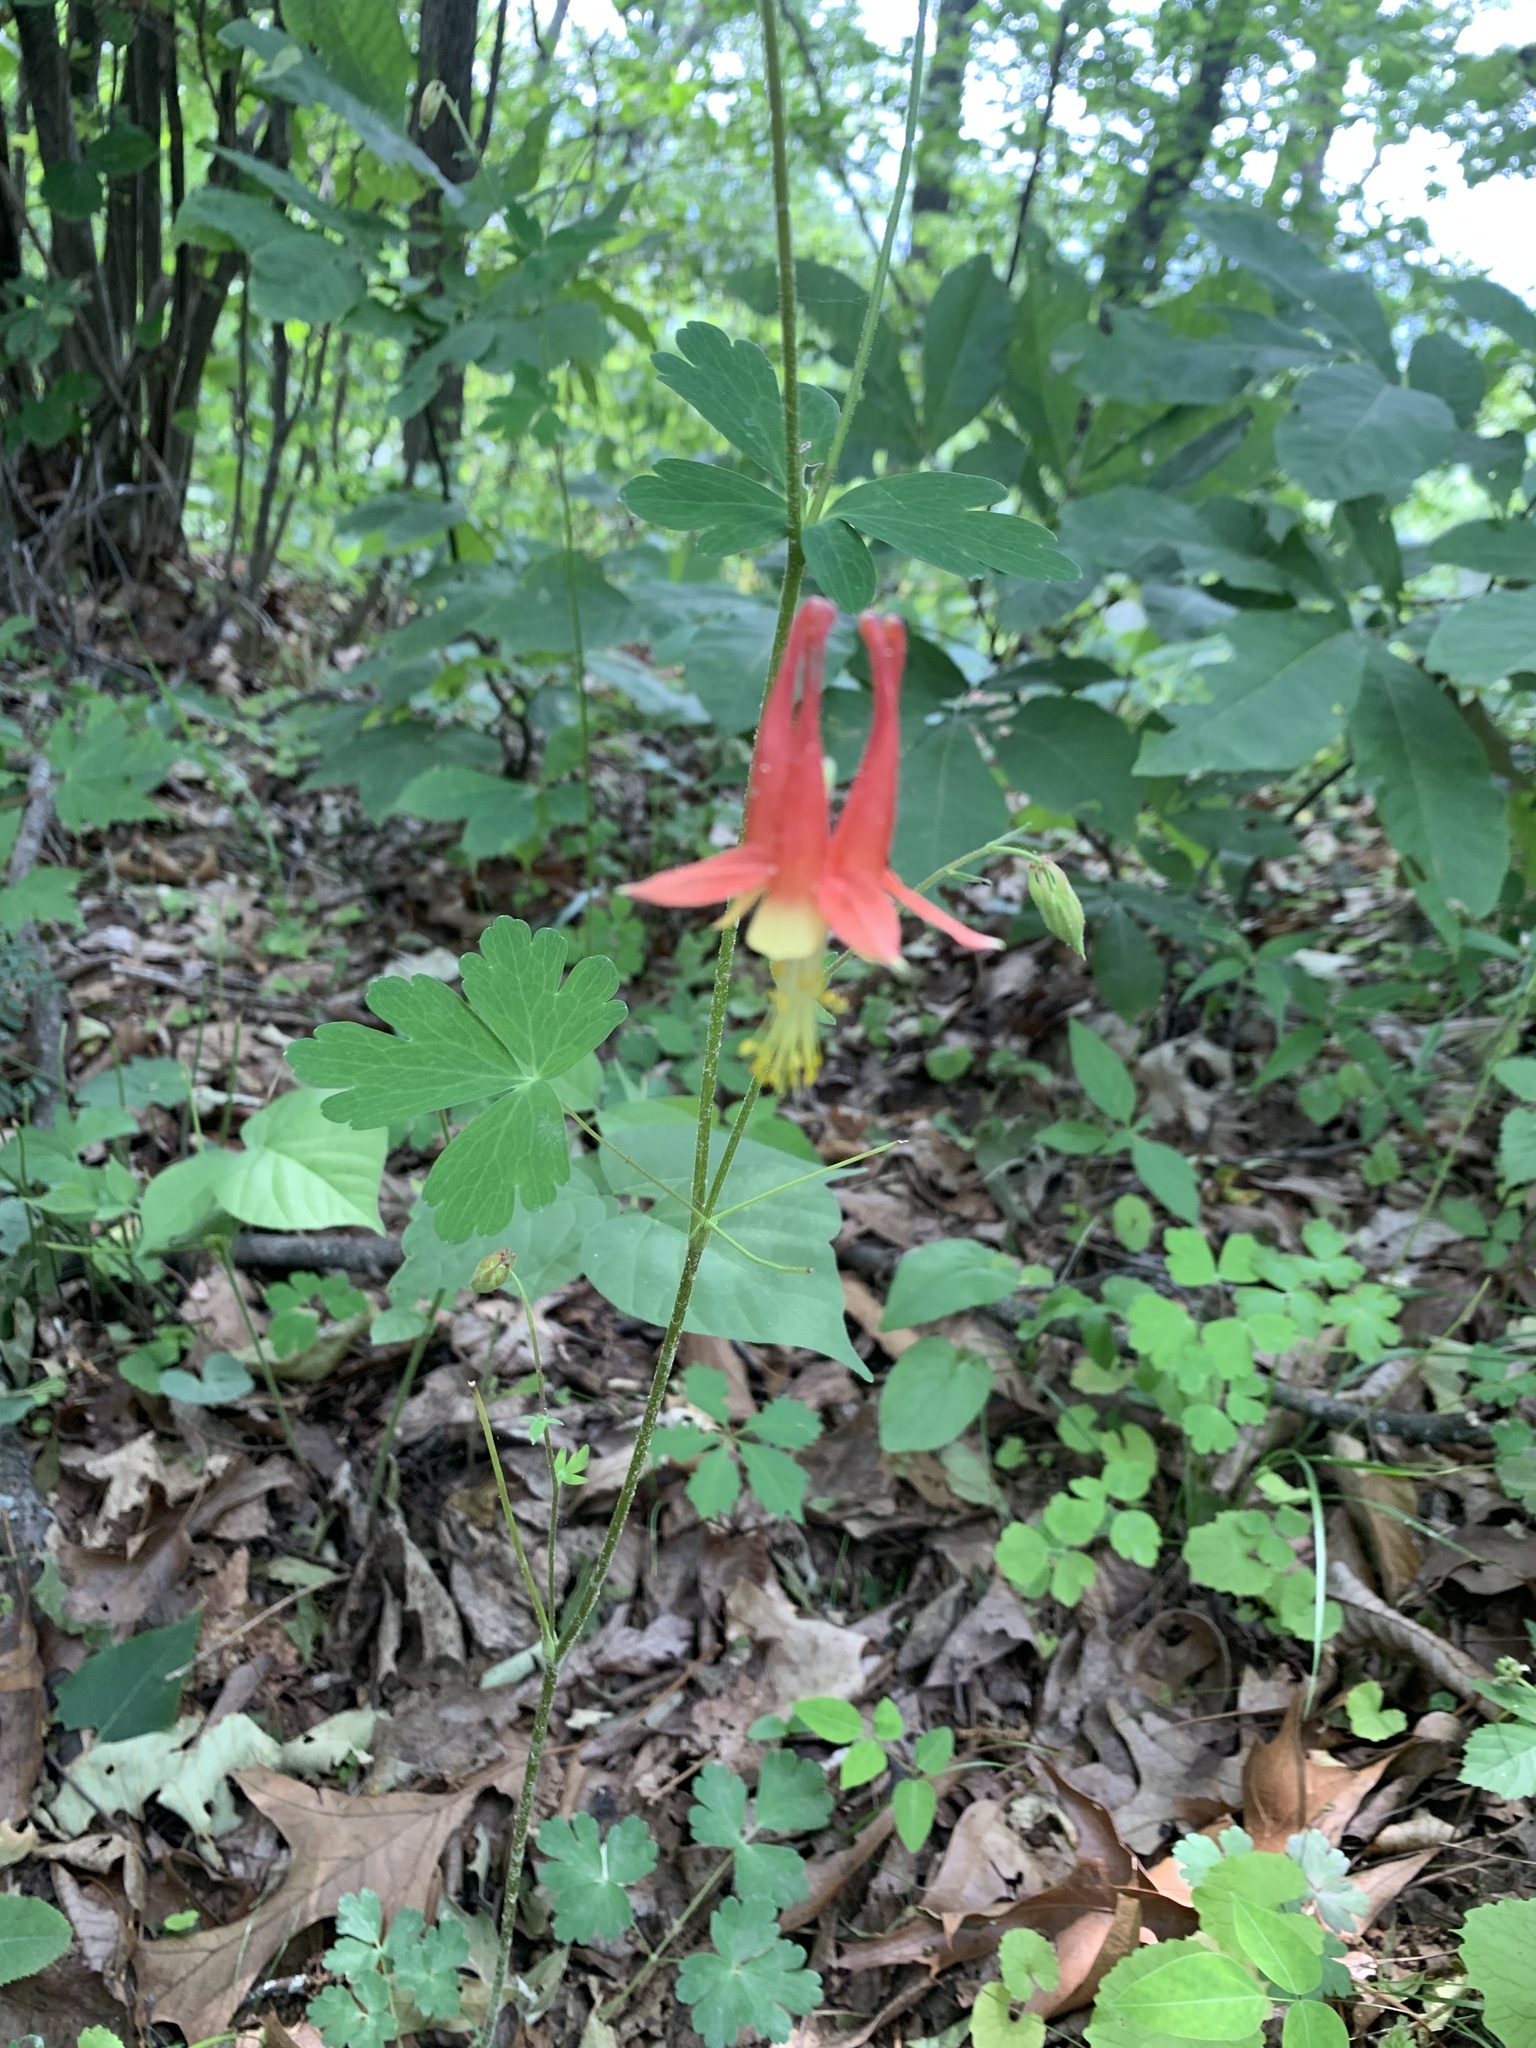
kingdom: Plantae
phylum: Tracheophyta
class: Magnoliopsida
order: Ranunculales
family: Ranunculaceae
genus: Aquilegia
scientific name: Aquilegia canadensis
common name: American columbine
